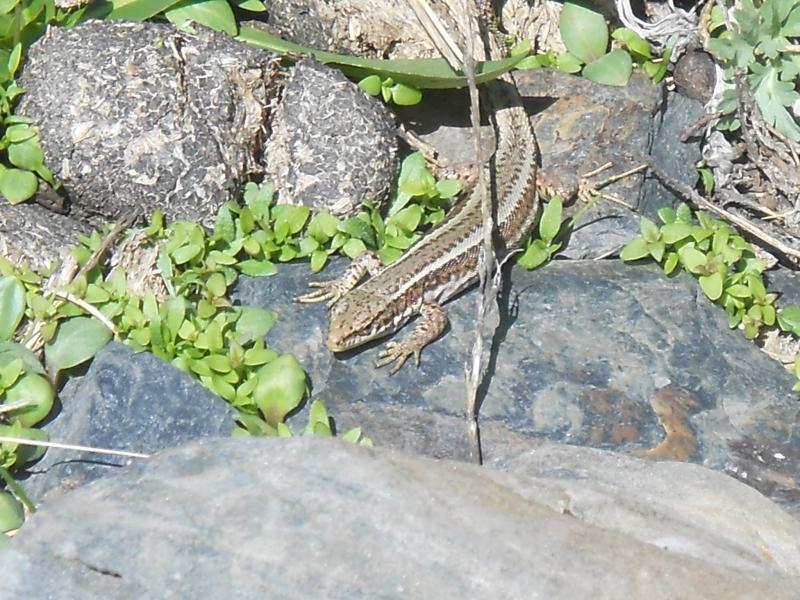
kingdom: Animalia
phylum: Chordata
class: Squamata
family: Lacertidae
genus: Darevskia
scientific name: Darevskia caucasica
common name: Caucasian llzard
